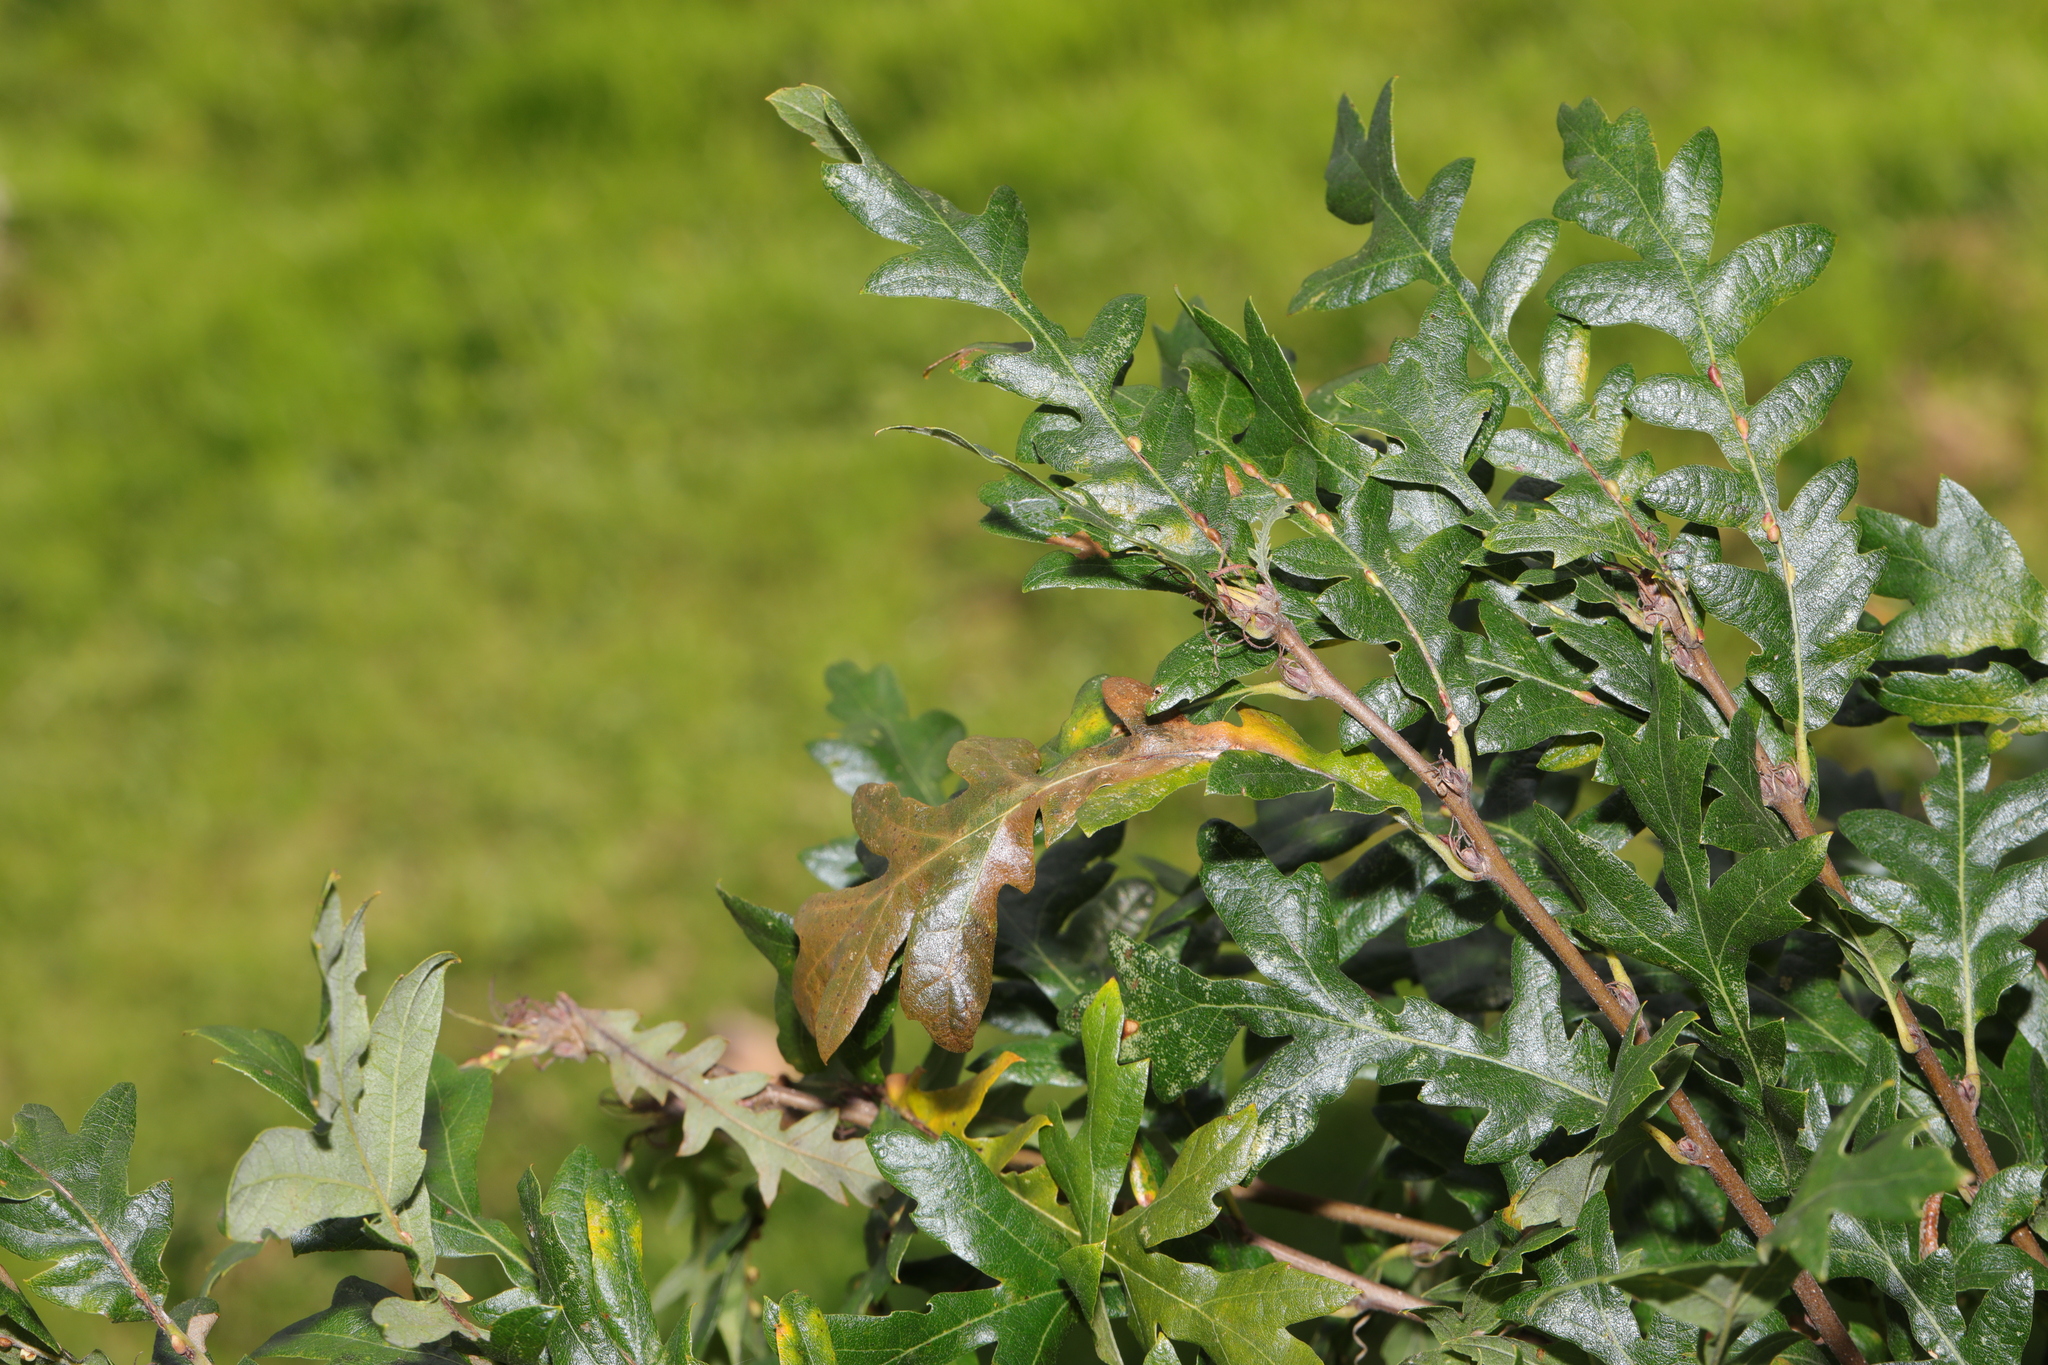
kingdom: Plantae
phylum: Tracheophyta
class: Magnoliopsida
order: Fagales
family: Fagaceae
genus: Quercus
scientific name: Quercus cerris
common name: Turkey oak
